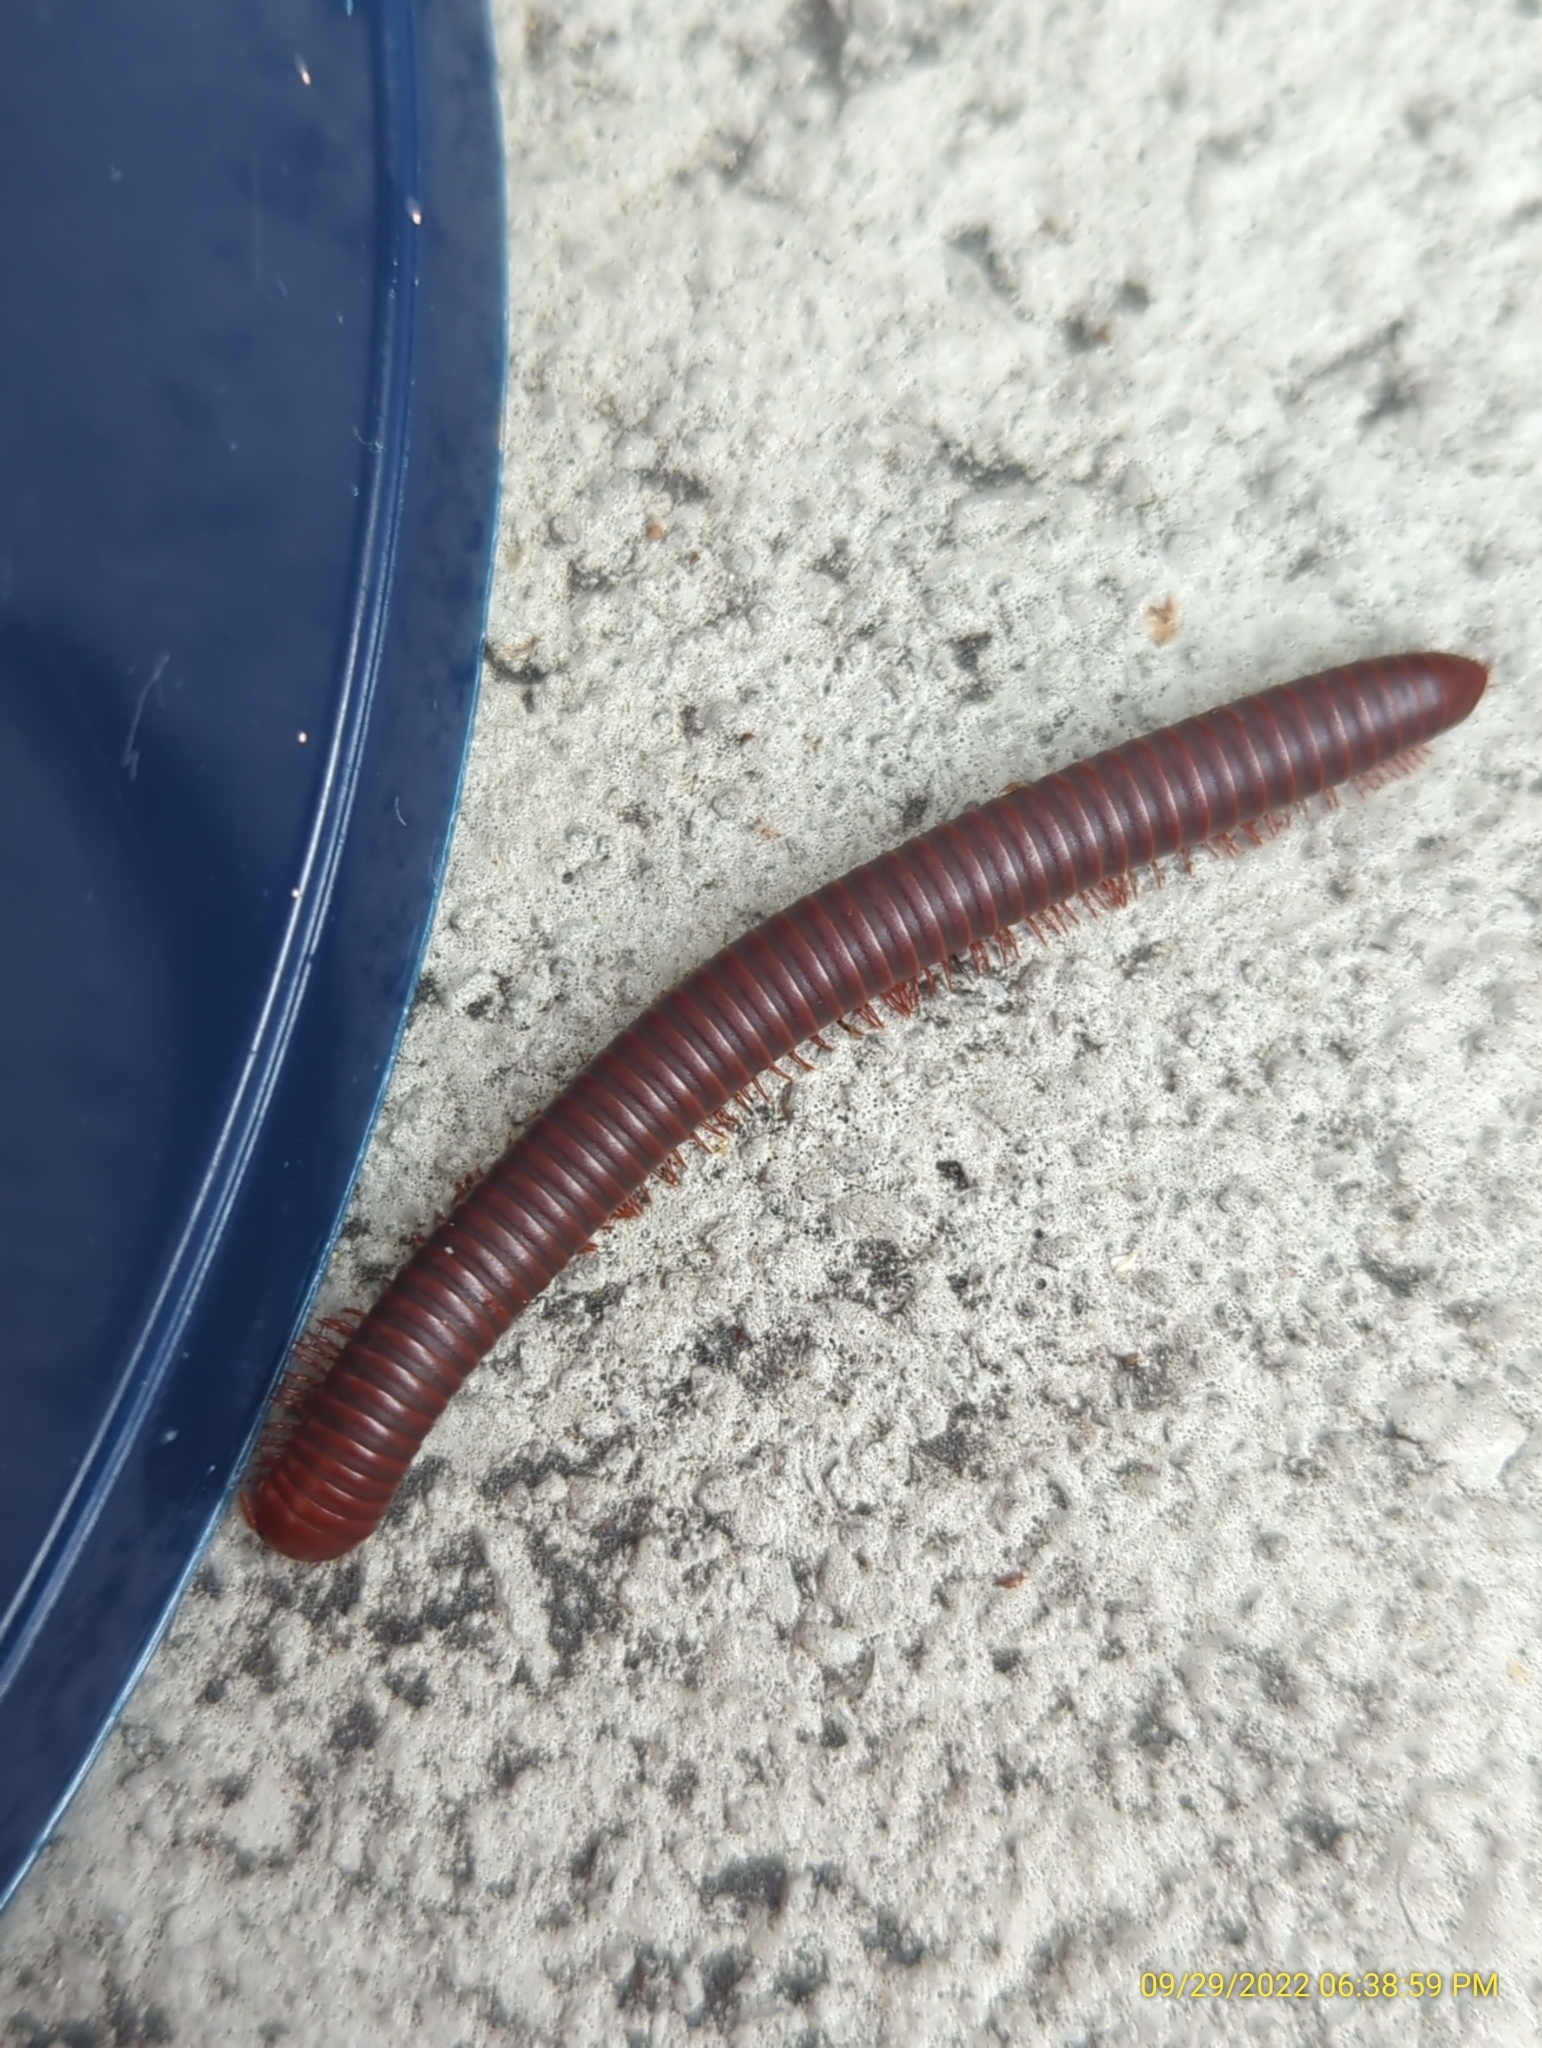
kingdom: Animalia
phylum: Arthropoda
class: Diplopoda
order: Spirobolida
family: Pachybolidae
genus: Trigoniulus
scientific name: Trigoniulus corallinus
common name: Millipede
